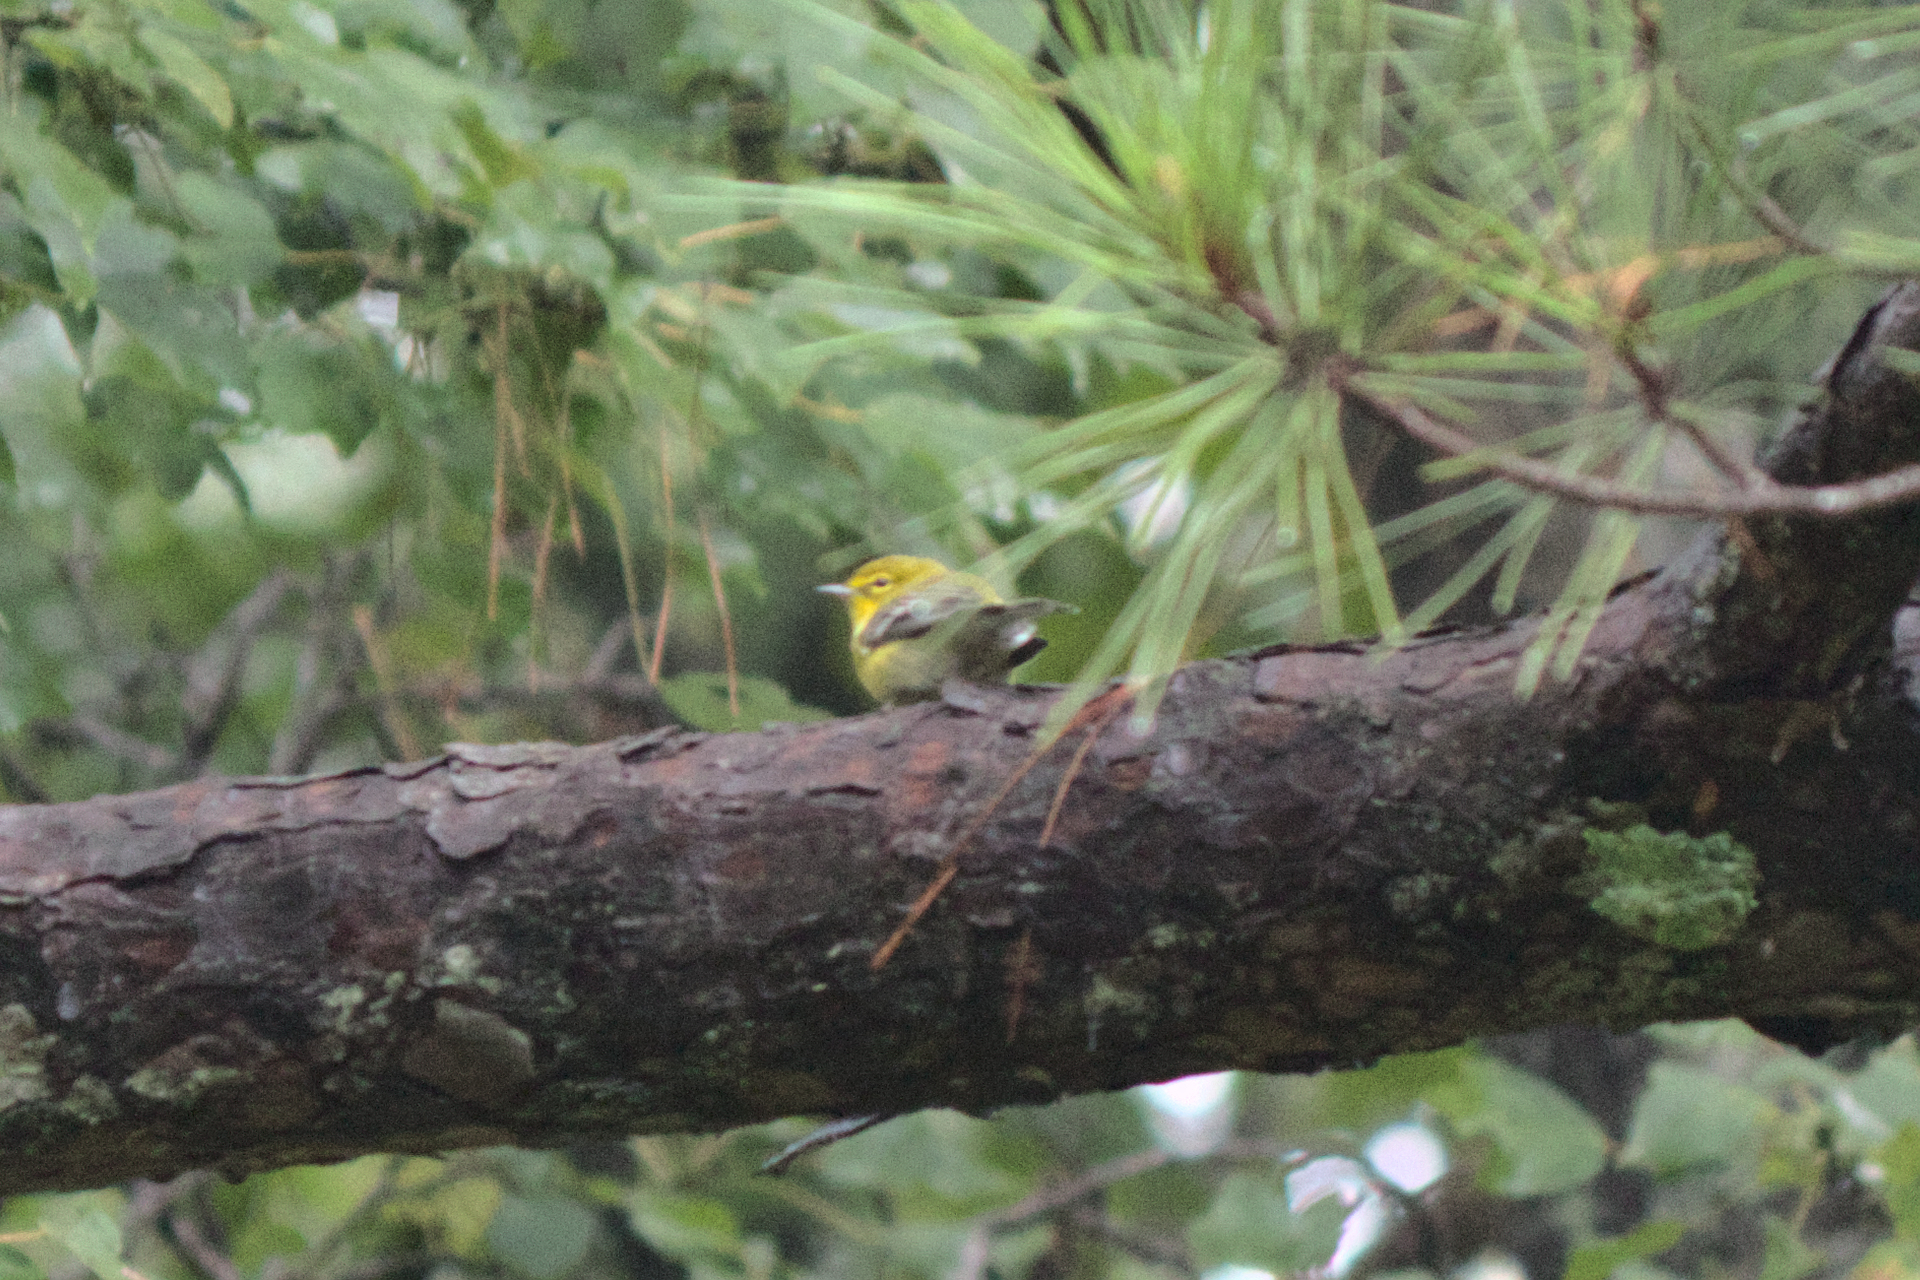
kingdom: Animalia
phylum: Chordata
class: Aves
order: Passeriformes
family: Parulidae
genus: Setophaga
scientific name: Setophaga pinus
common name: Pine warbler
